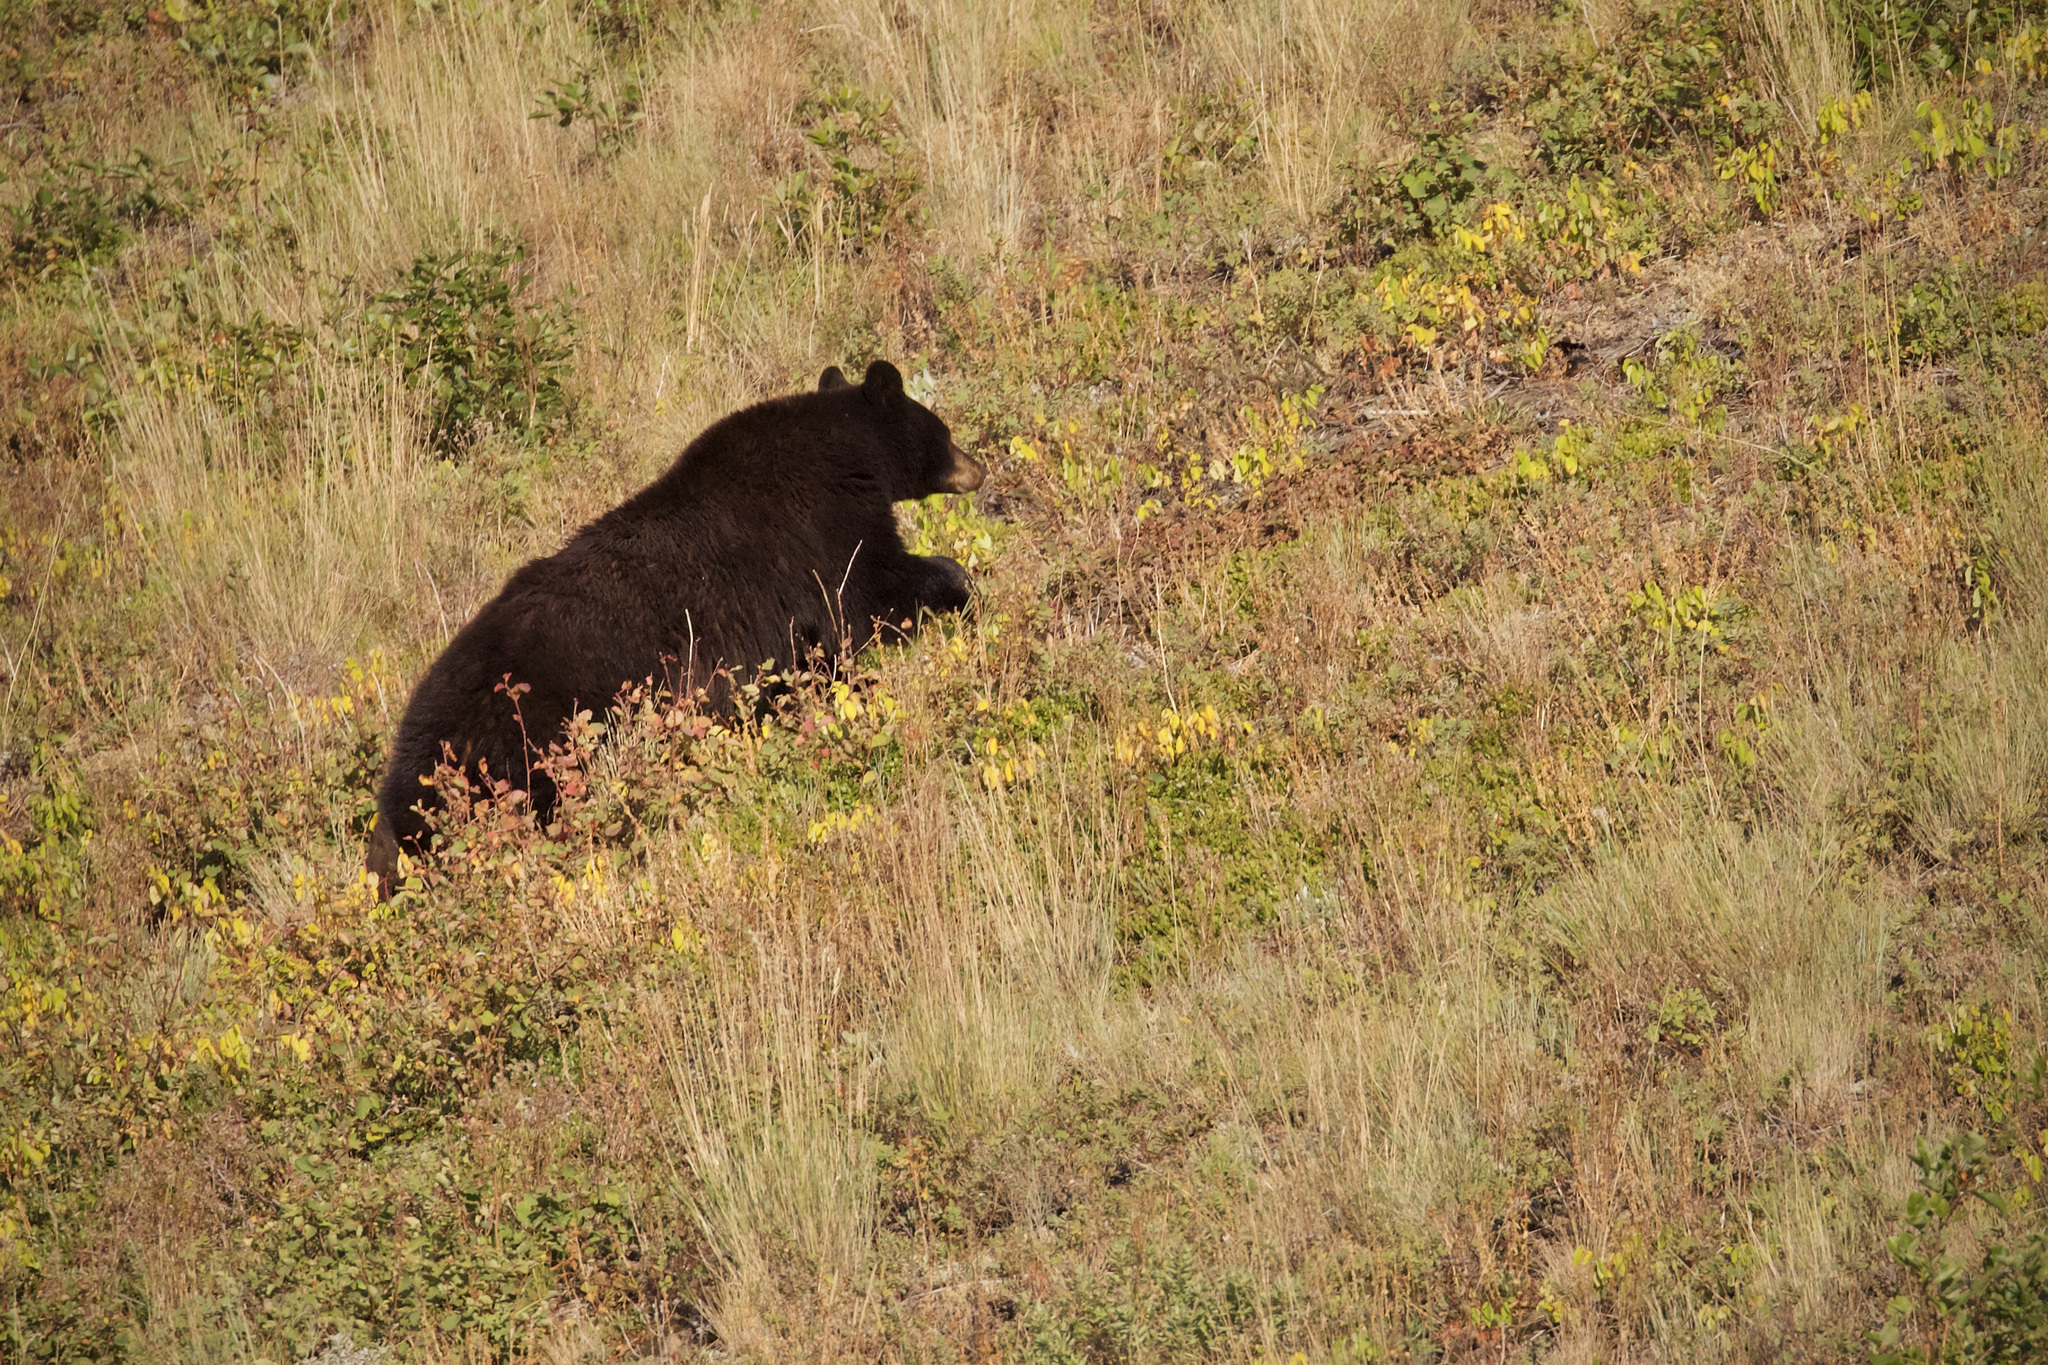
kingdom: Animalia
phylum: Chordata
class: Mammalia
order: Carnivora
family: Ursidae
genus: Ursus
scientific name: Ursus americanus
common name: American black bear
